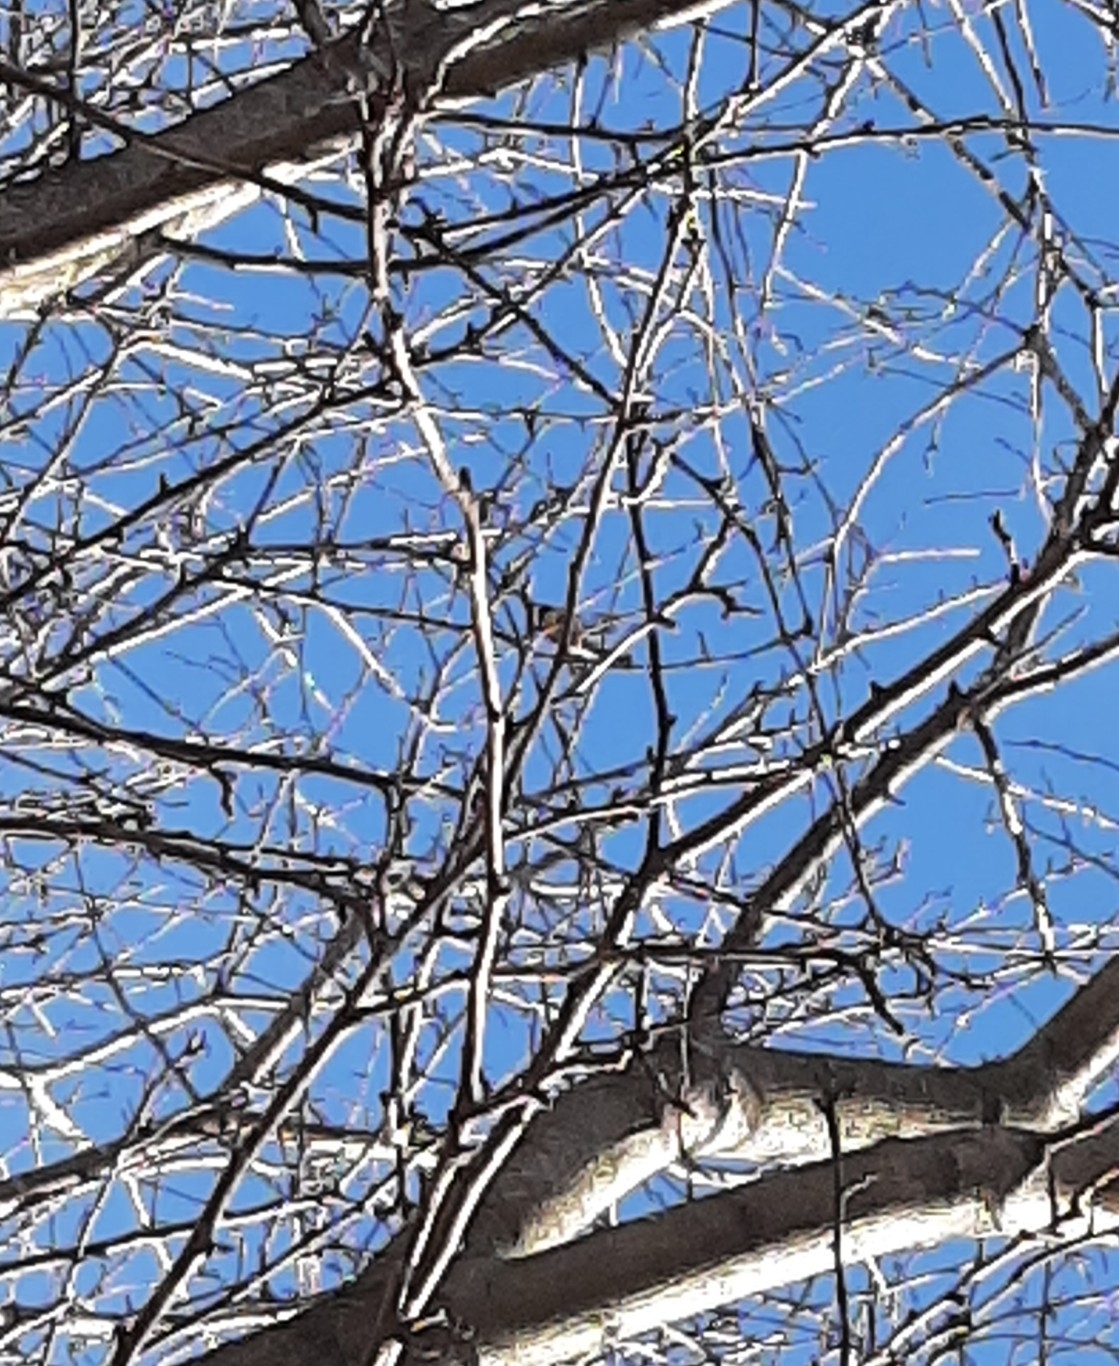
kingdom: Animalia
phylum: Chordata
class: Aves
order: Passeriformes
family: Paridae
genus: Poecile
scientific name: Poecile atricapillus
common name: Black-capped chickadee
